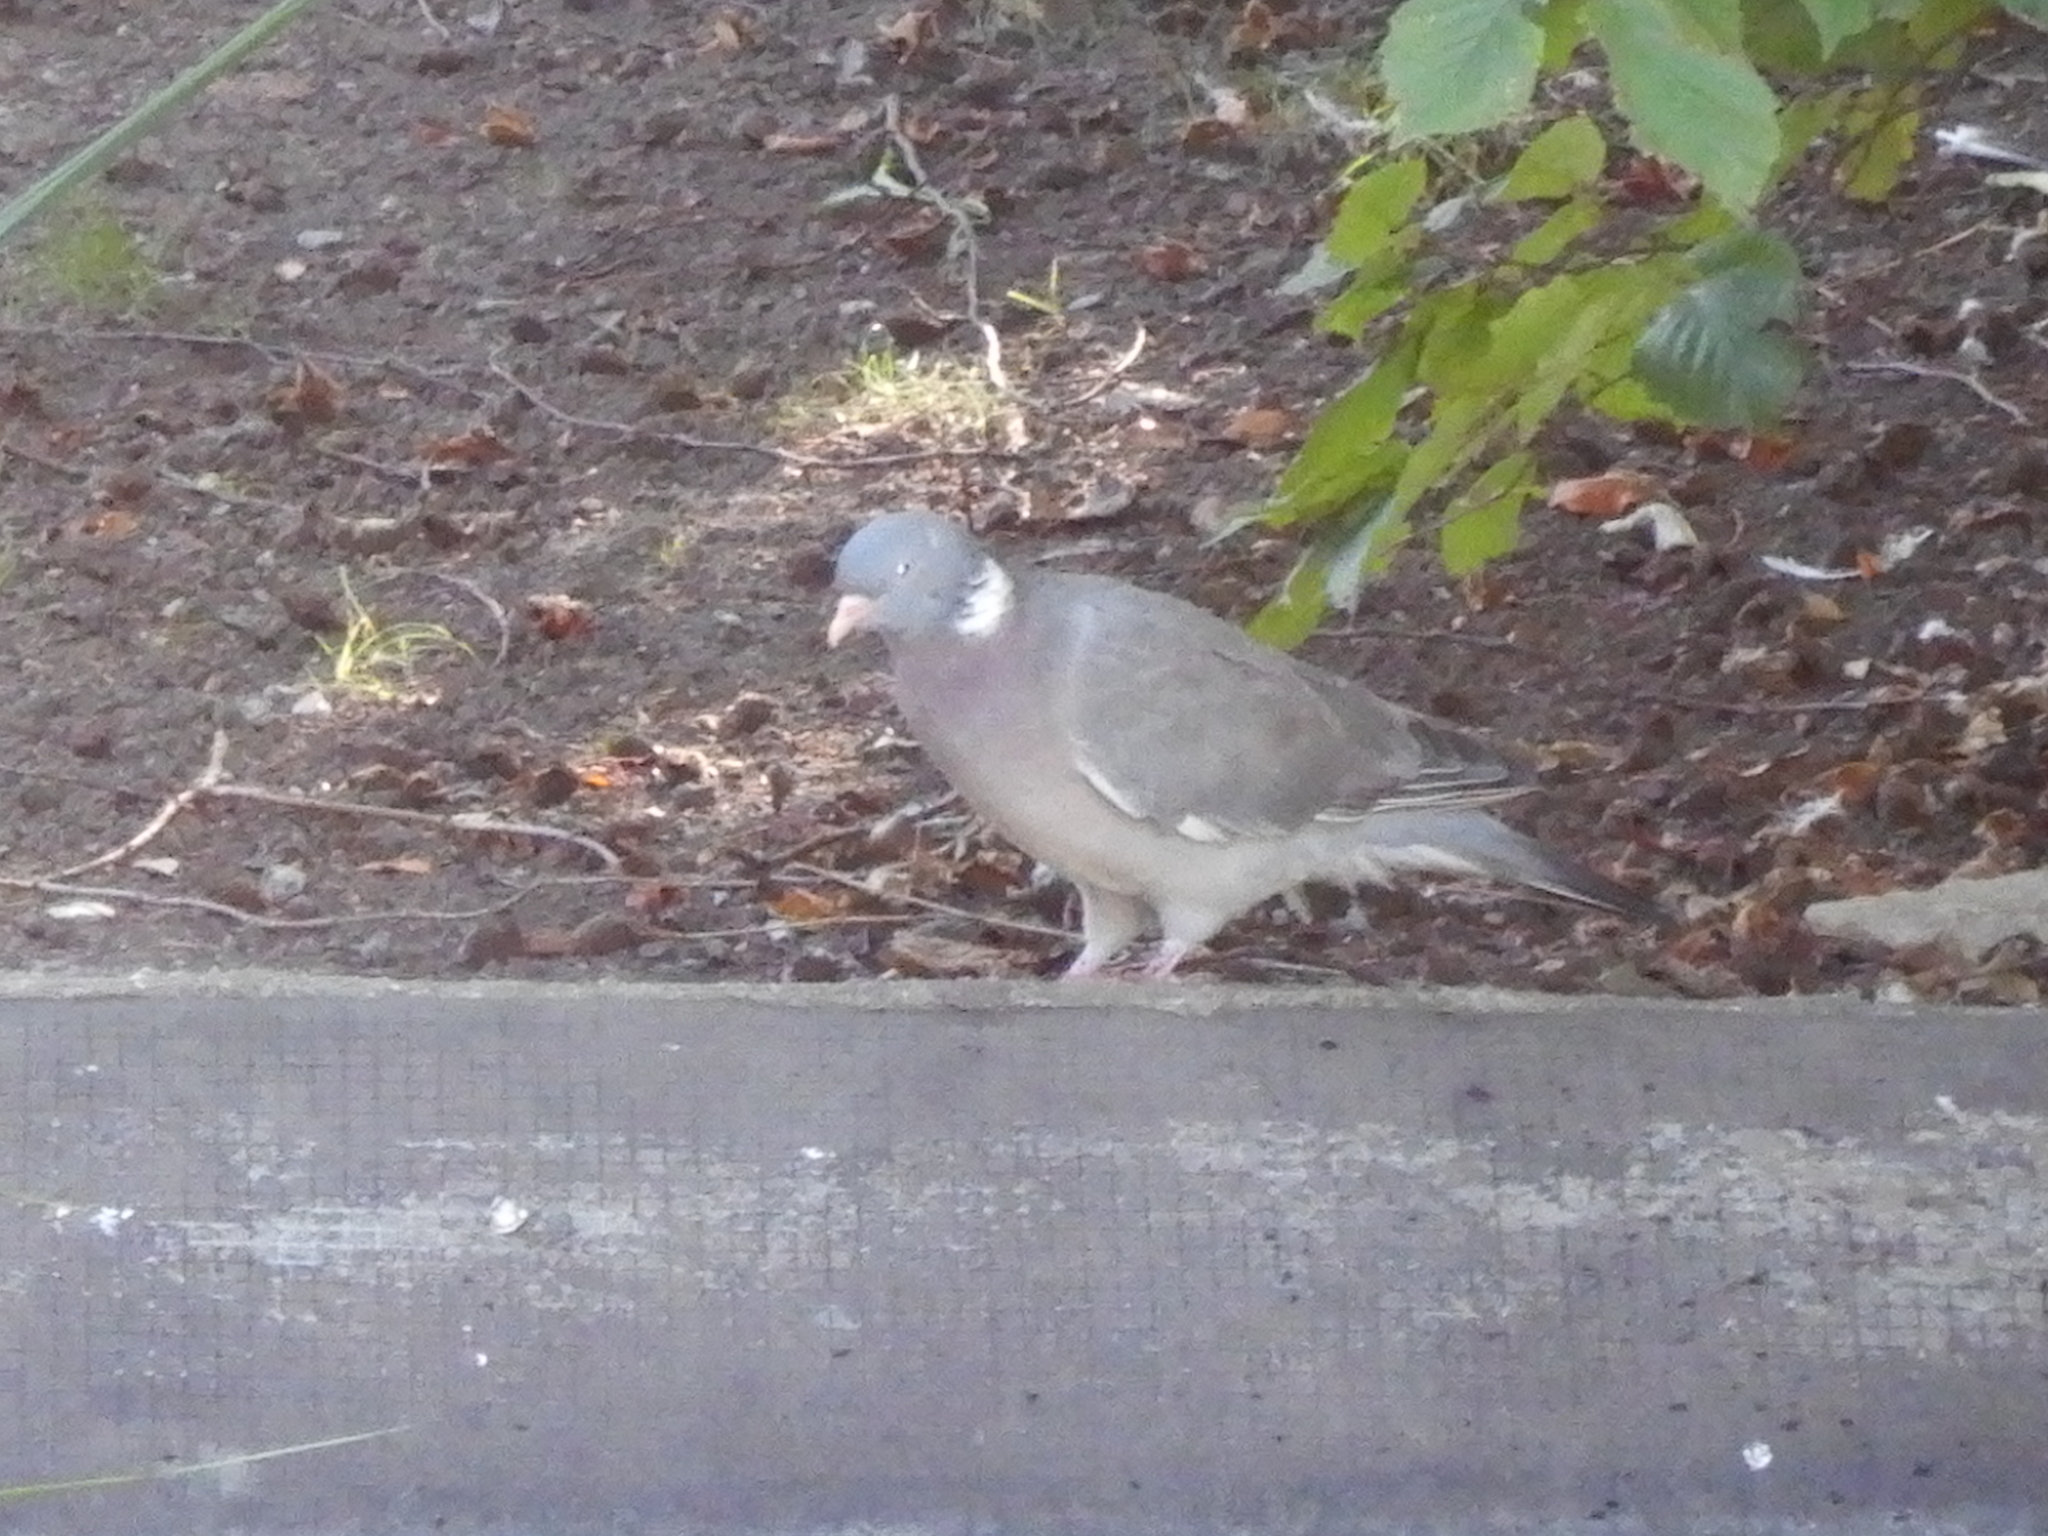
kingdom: Animalia
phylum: Chordata
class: Aves
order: Columbiformes
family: Columbidae
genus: Columba
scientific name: Columba palumbus
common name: Common wood pigeon
